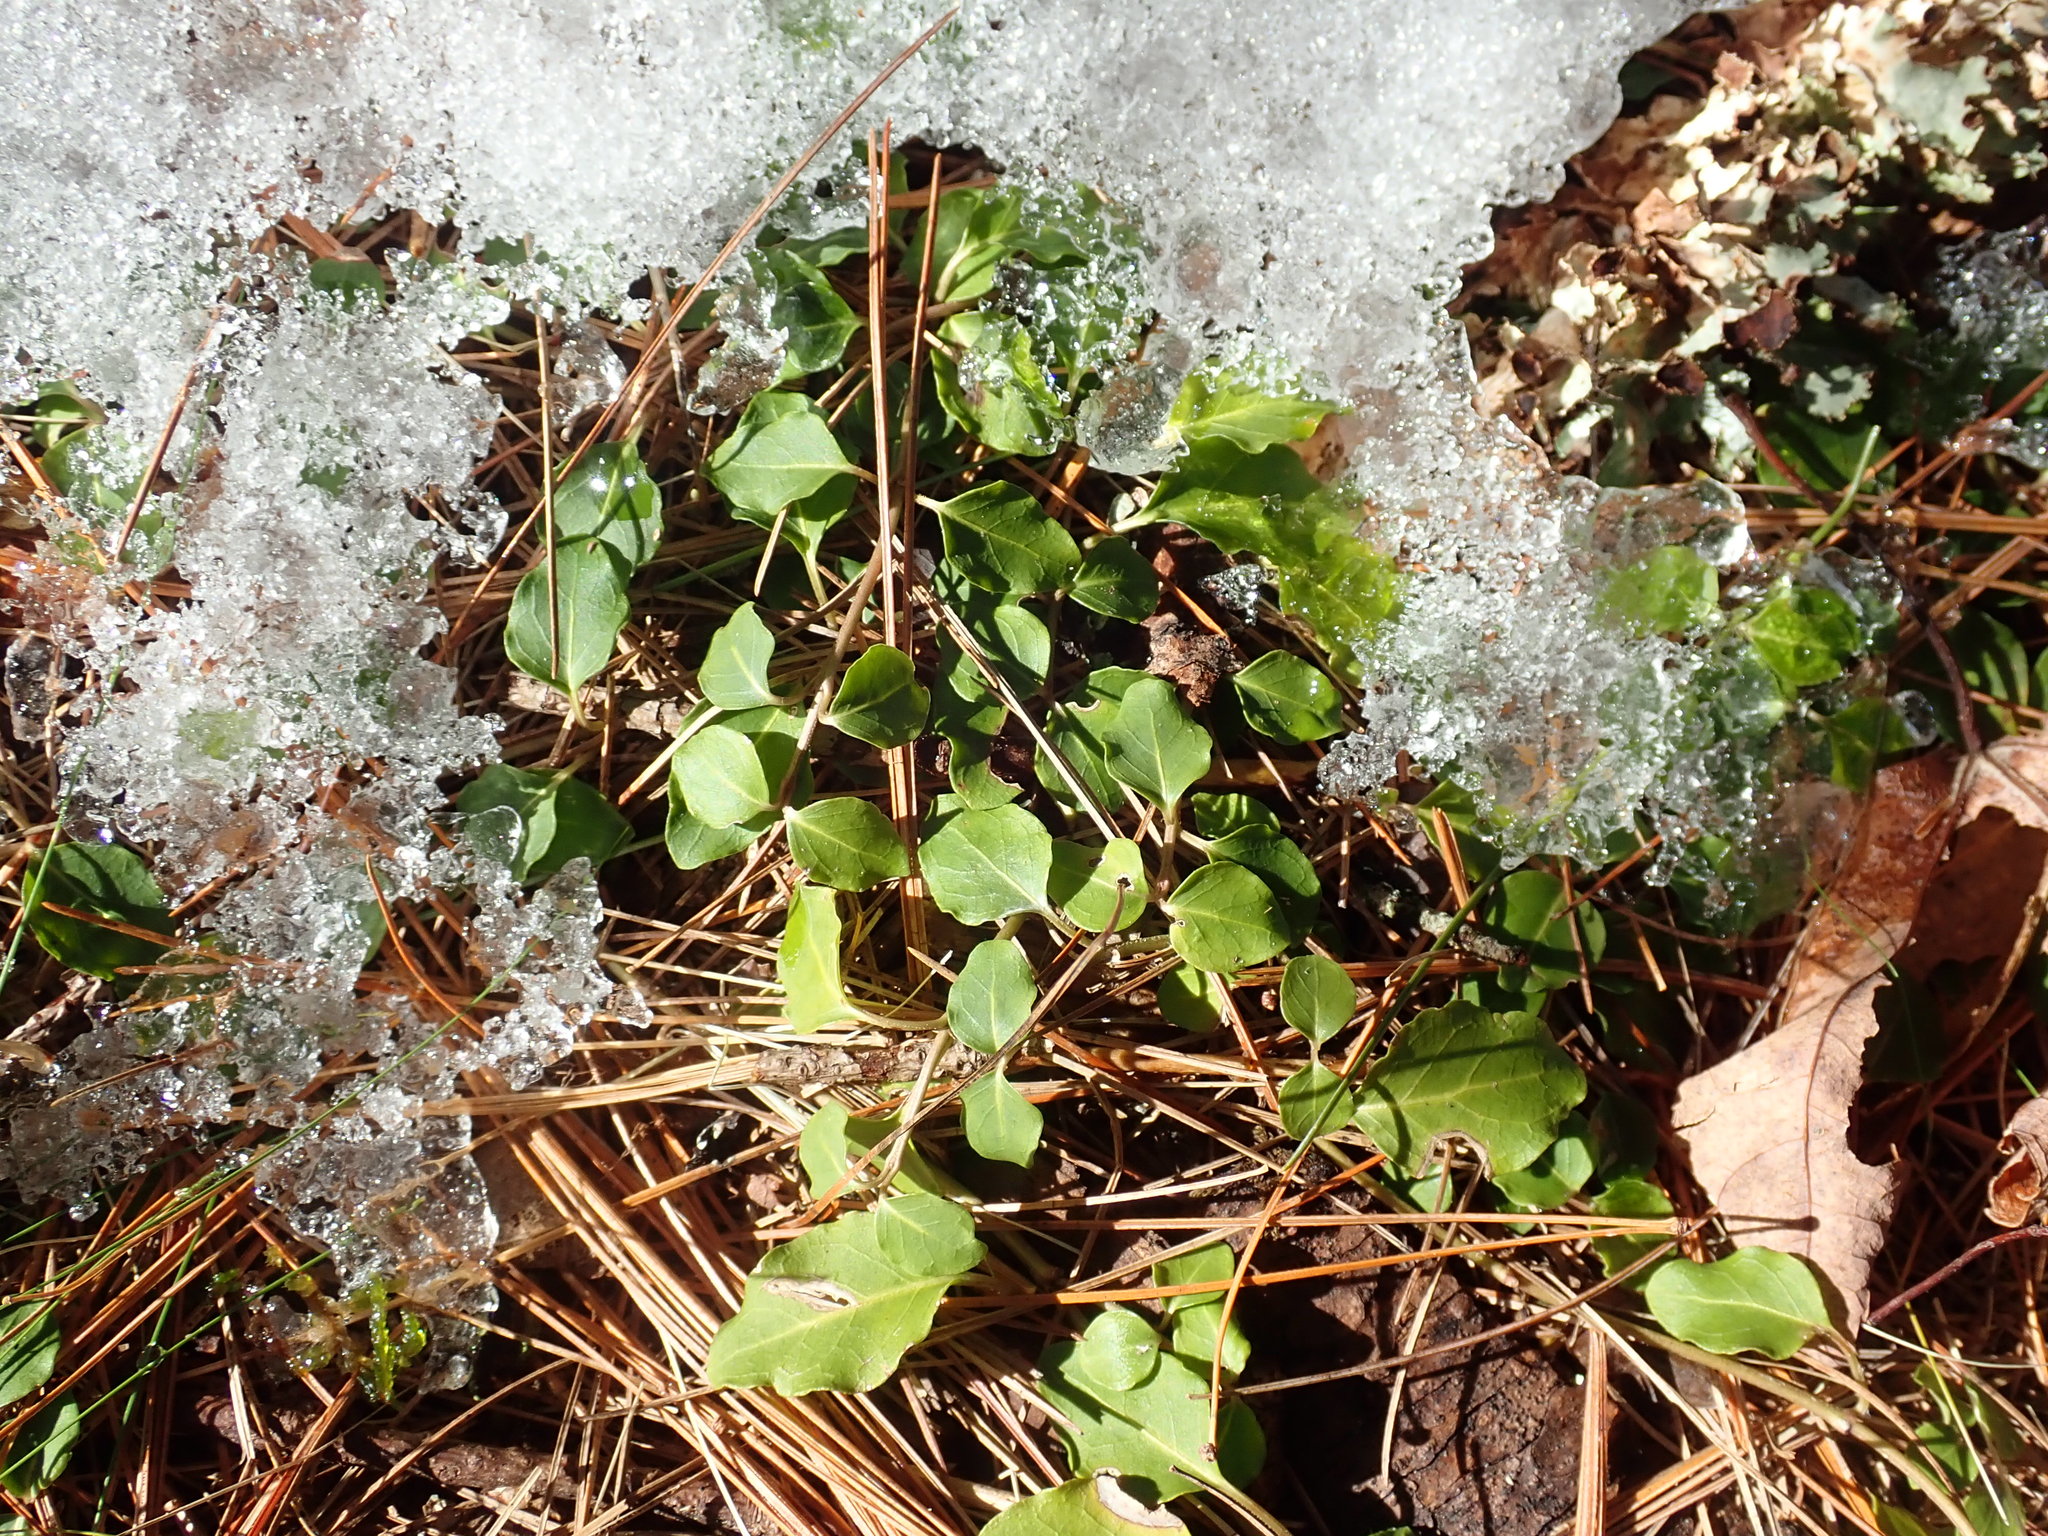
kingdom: Plantae
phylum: Tracheophyta
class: Magnoliopsida
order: Gentianales
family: Rubiaceae
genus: Mitchella
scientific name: Mitchella repens
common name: Partridge-berry
